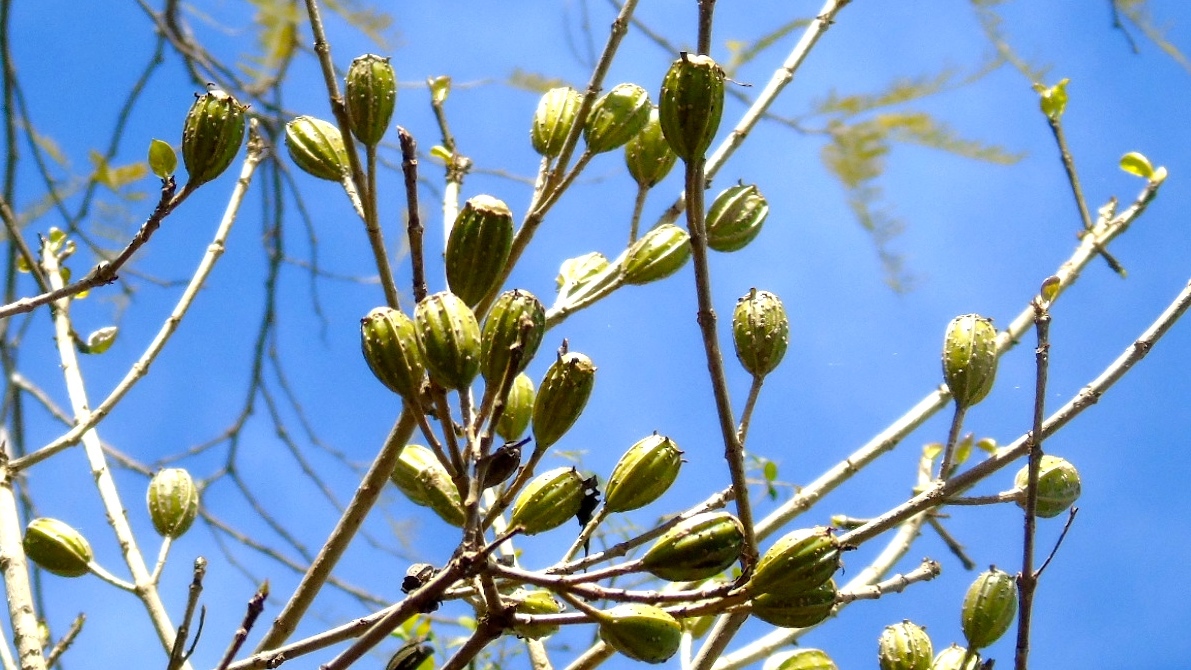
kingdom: Plantae
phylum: Tracheophyta
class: Magnoliopsida
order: Gentianales
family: Rubiaceae
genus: Hintonia
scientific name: Hintonia latiflora
